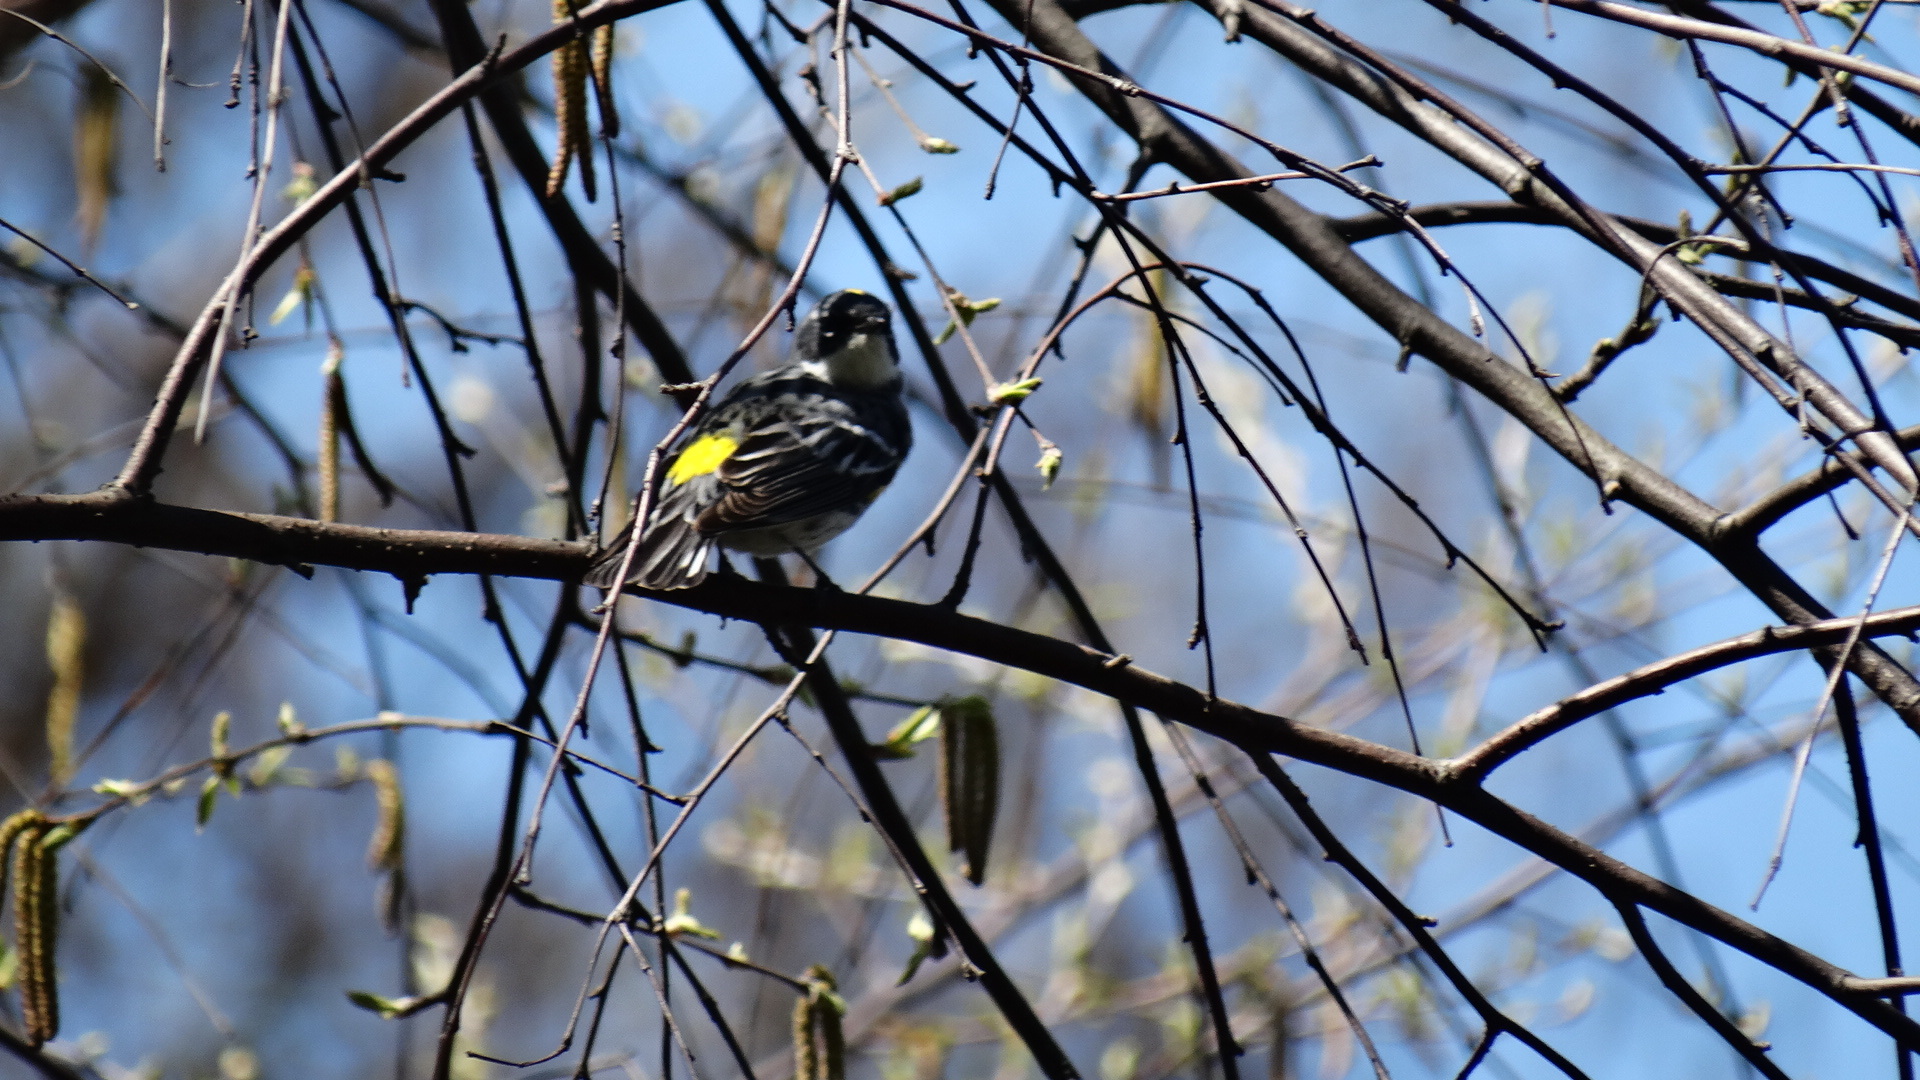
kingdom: Animalia
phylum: Chordata
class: Aves
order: Passeriformes
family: Parulidae
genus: Setophaga
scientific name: Setophaga coronata
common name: Myrtle warbler
